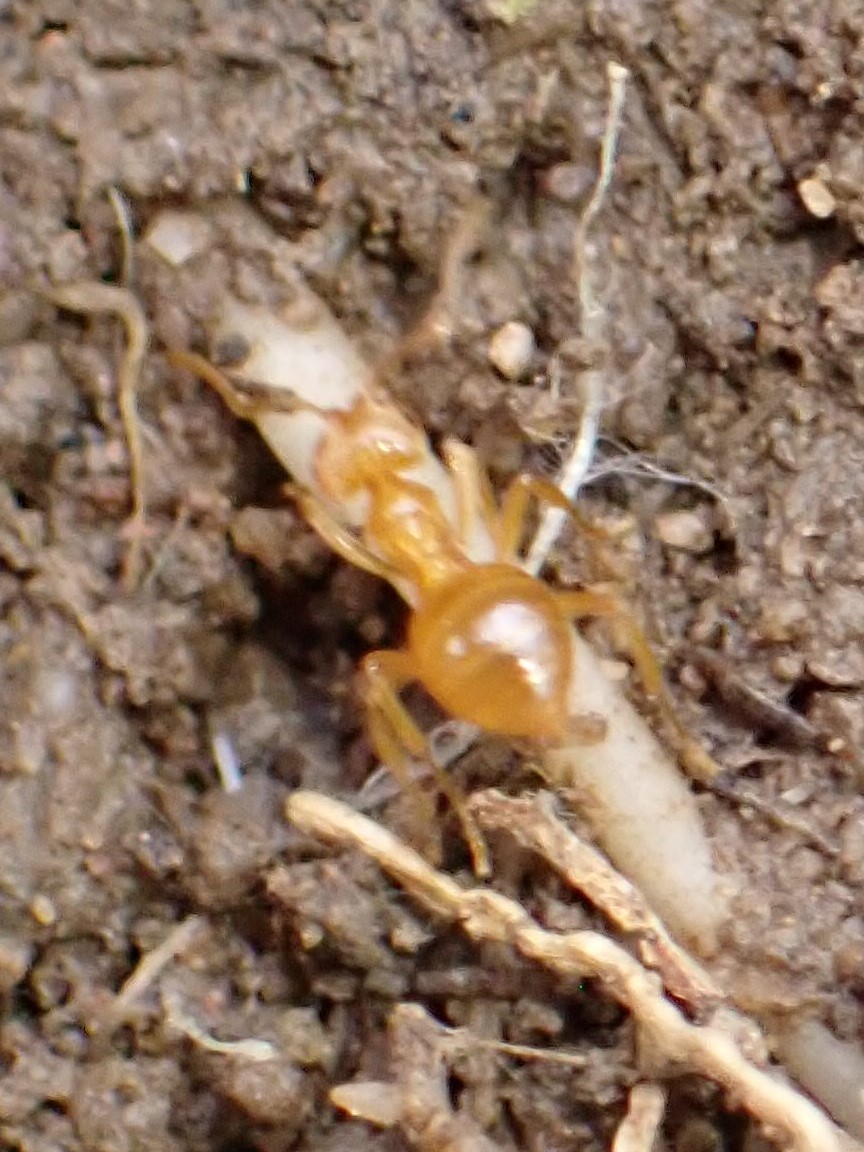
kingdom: Animalia
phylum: Arthropoda
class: Insecta
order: Hymenoptera
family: Formicidae
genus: Lasius
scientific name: Lasius
